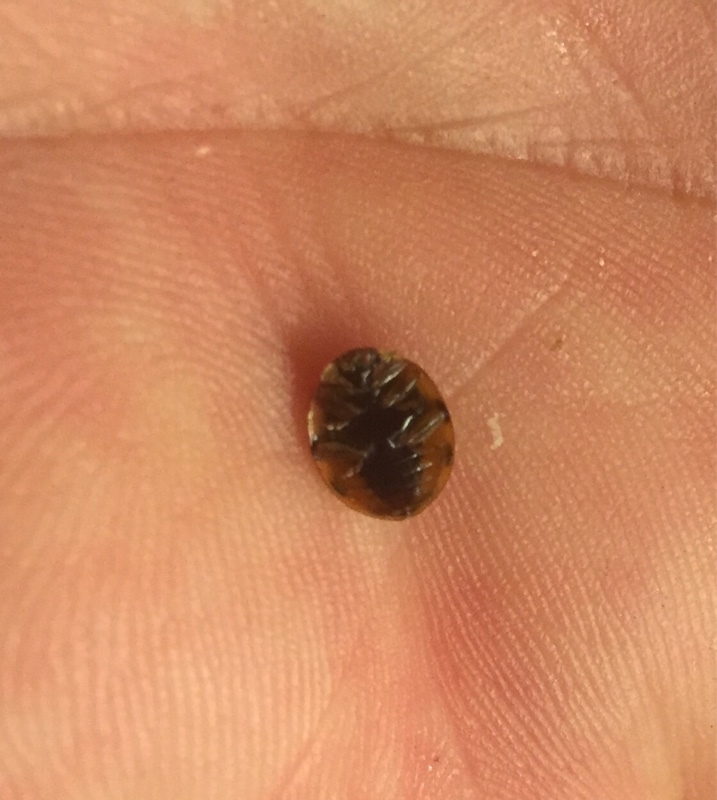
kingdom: Animalia
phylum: Arthropoda
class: Insecta
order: Coleoptera
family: Coccinellidae
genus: Harmonia
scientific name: Harmonia axyridis
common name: Harlequin ladybird
